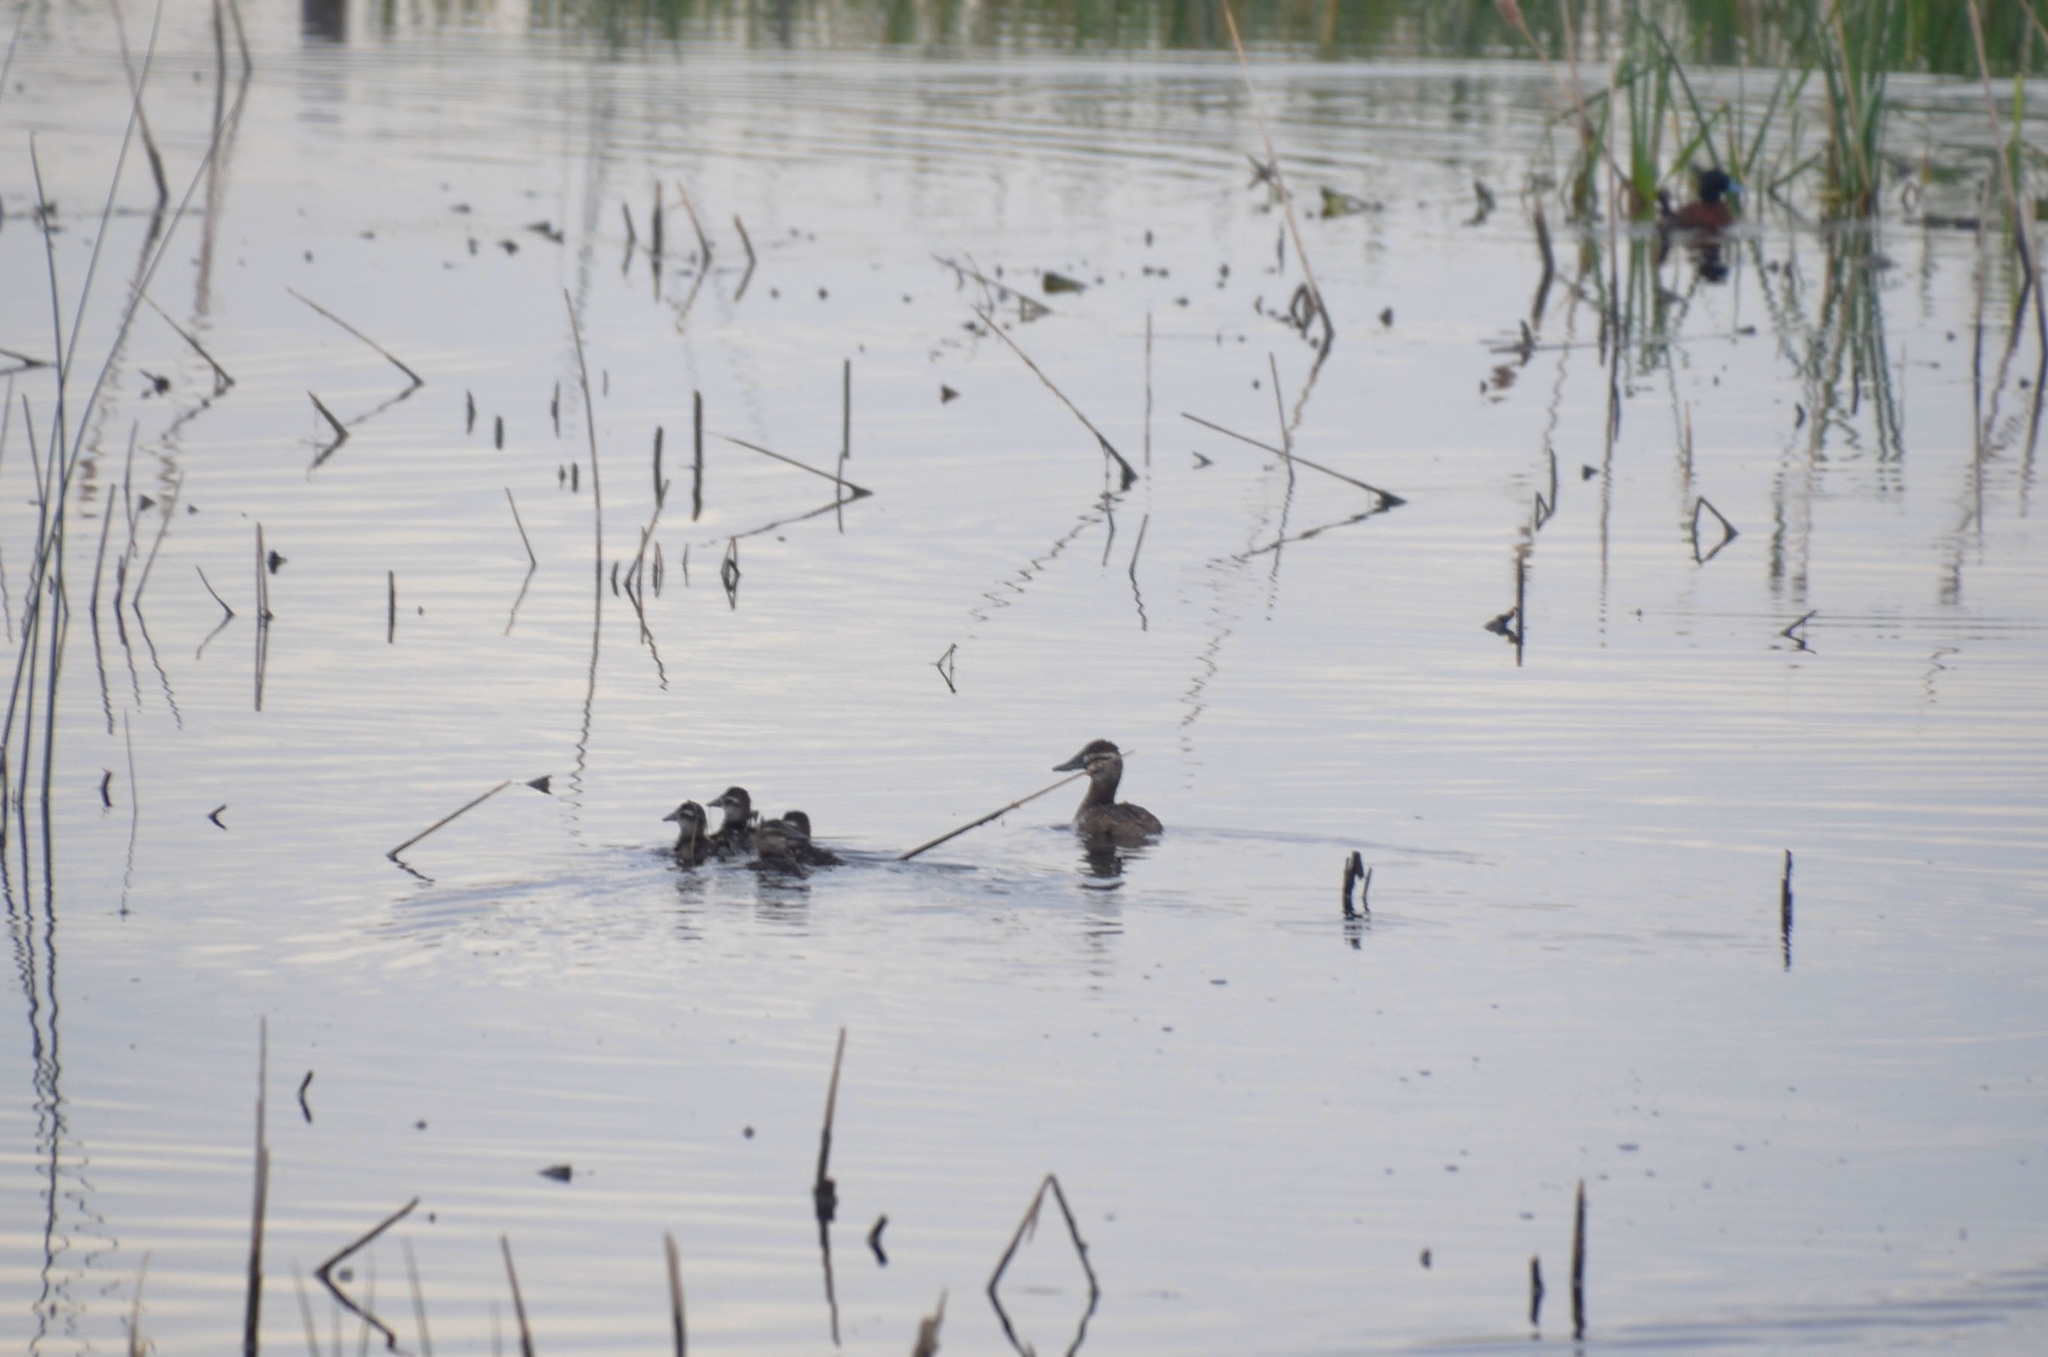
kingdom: Animalia
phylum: Chordata
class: Aves
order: Anseriformes
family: Anatidae
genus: Oxyura
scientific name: Oxyura vittata
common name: Lake duck
